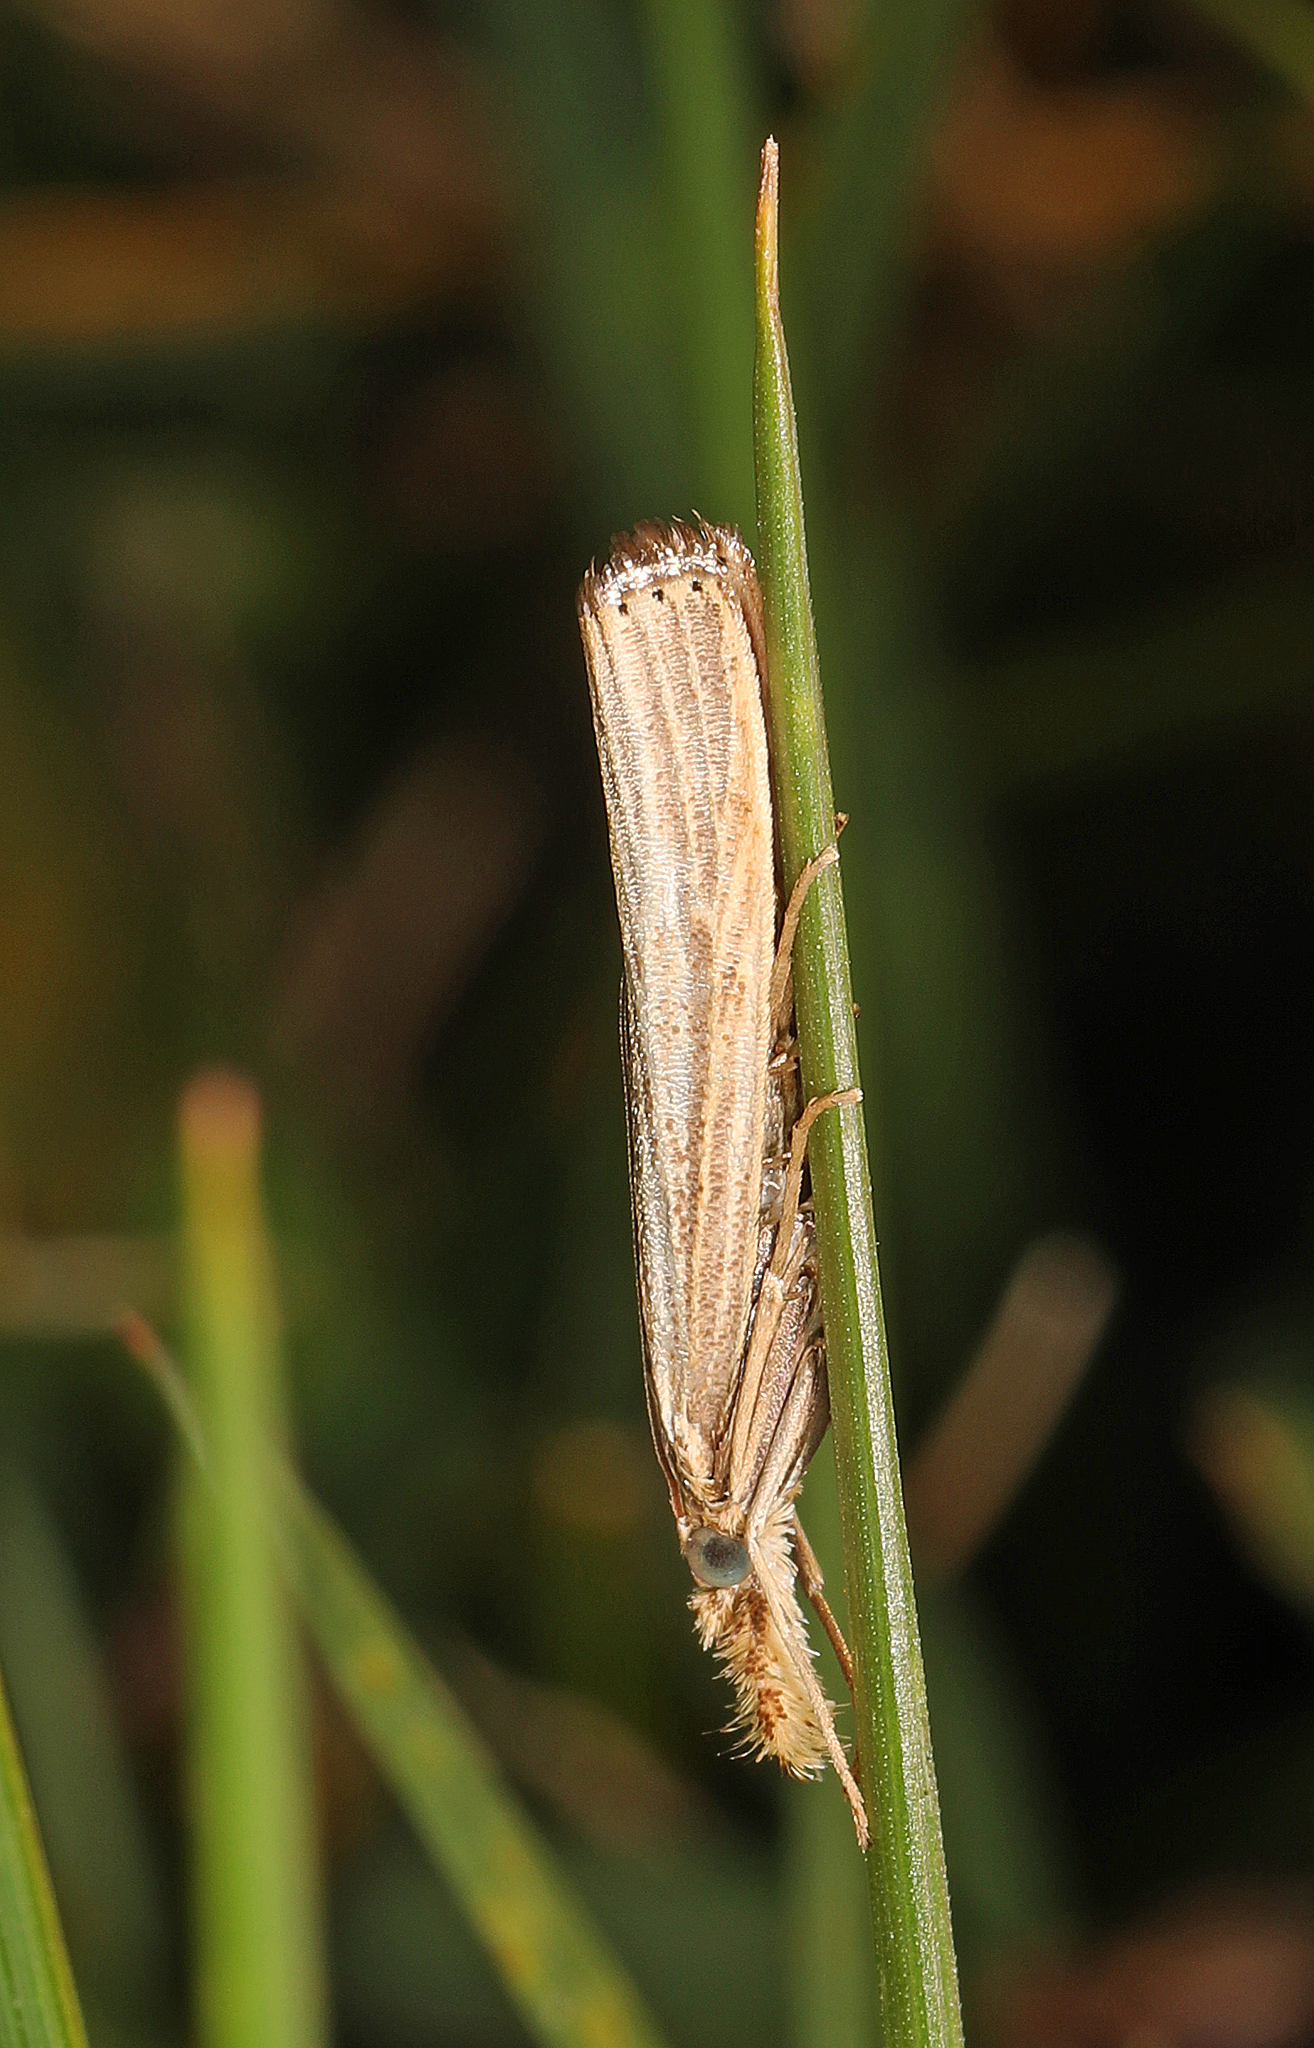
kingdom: Animalia
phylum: Arthropoda
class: Insecta
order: Lepidoptera
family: Crambidae
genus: Agriphila
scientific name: Agriphila vulgivagellus
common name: Vagabond crambus moth
